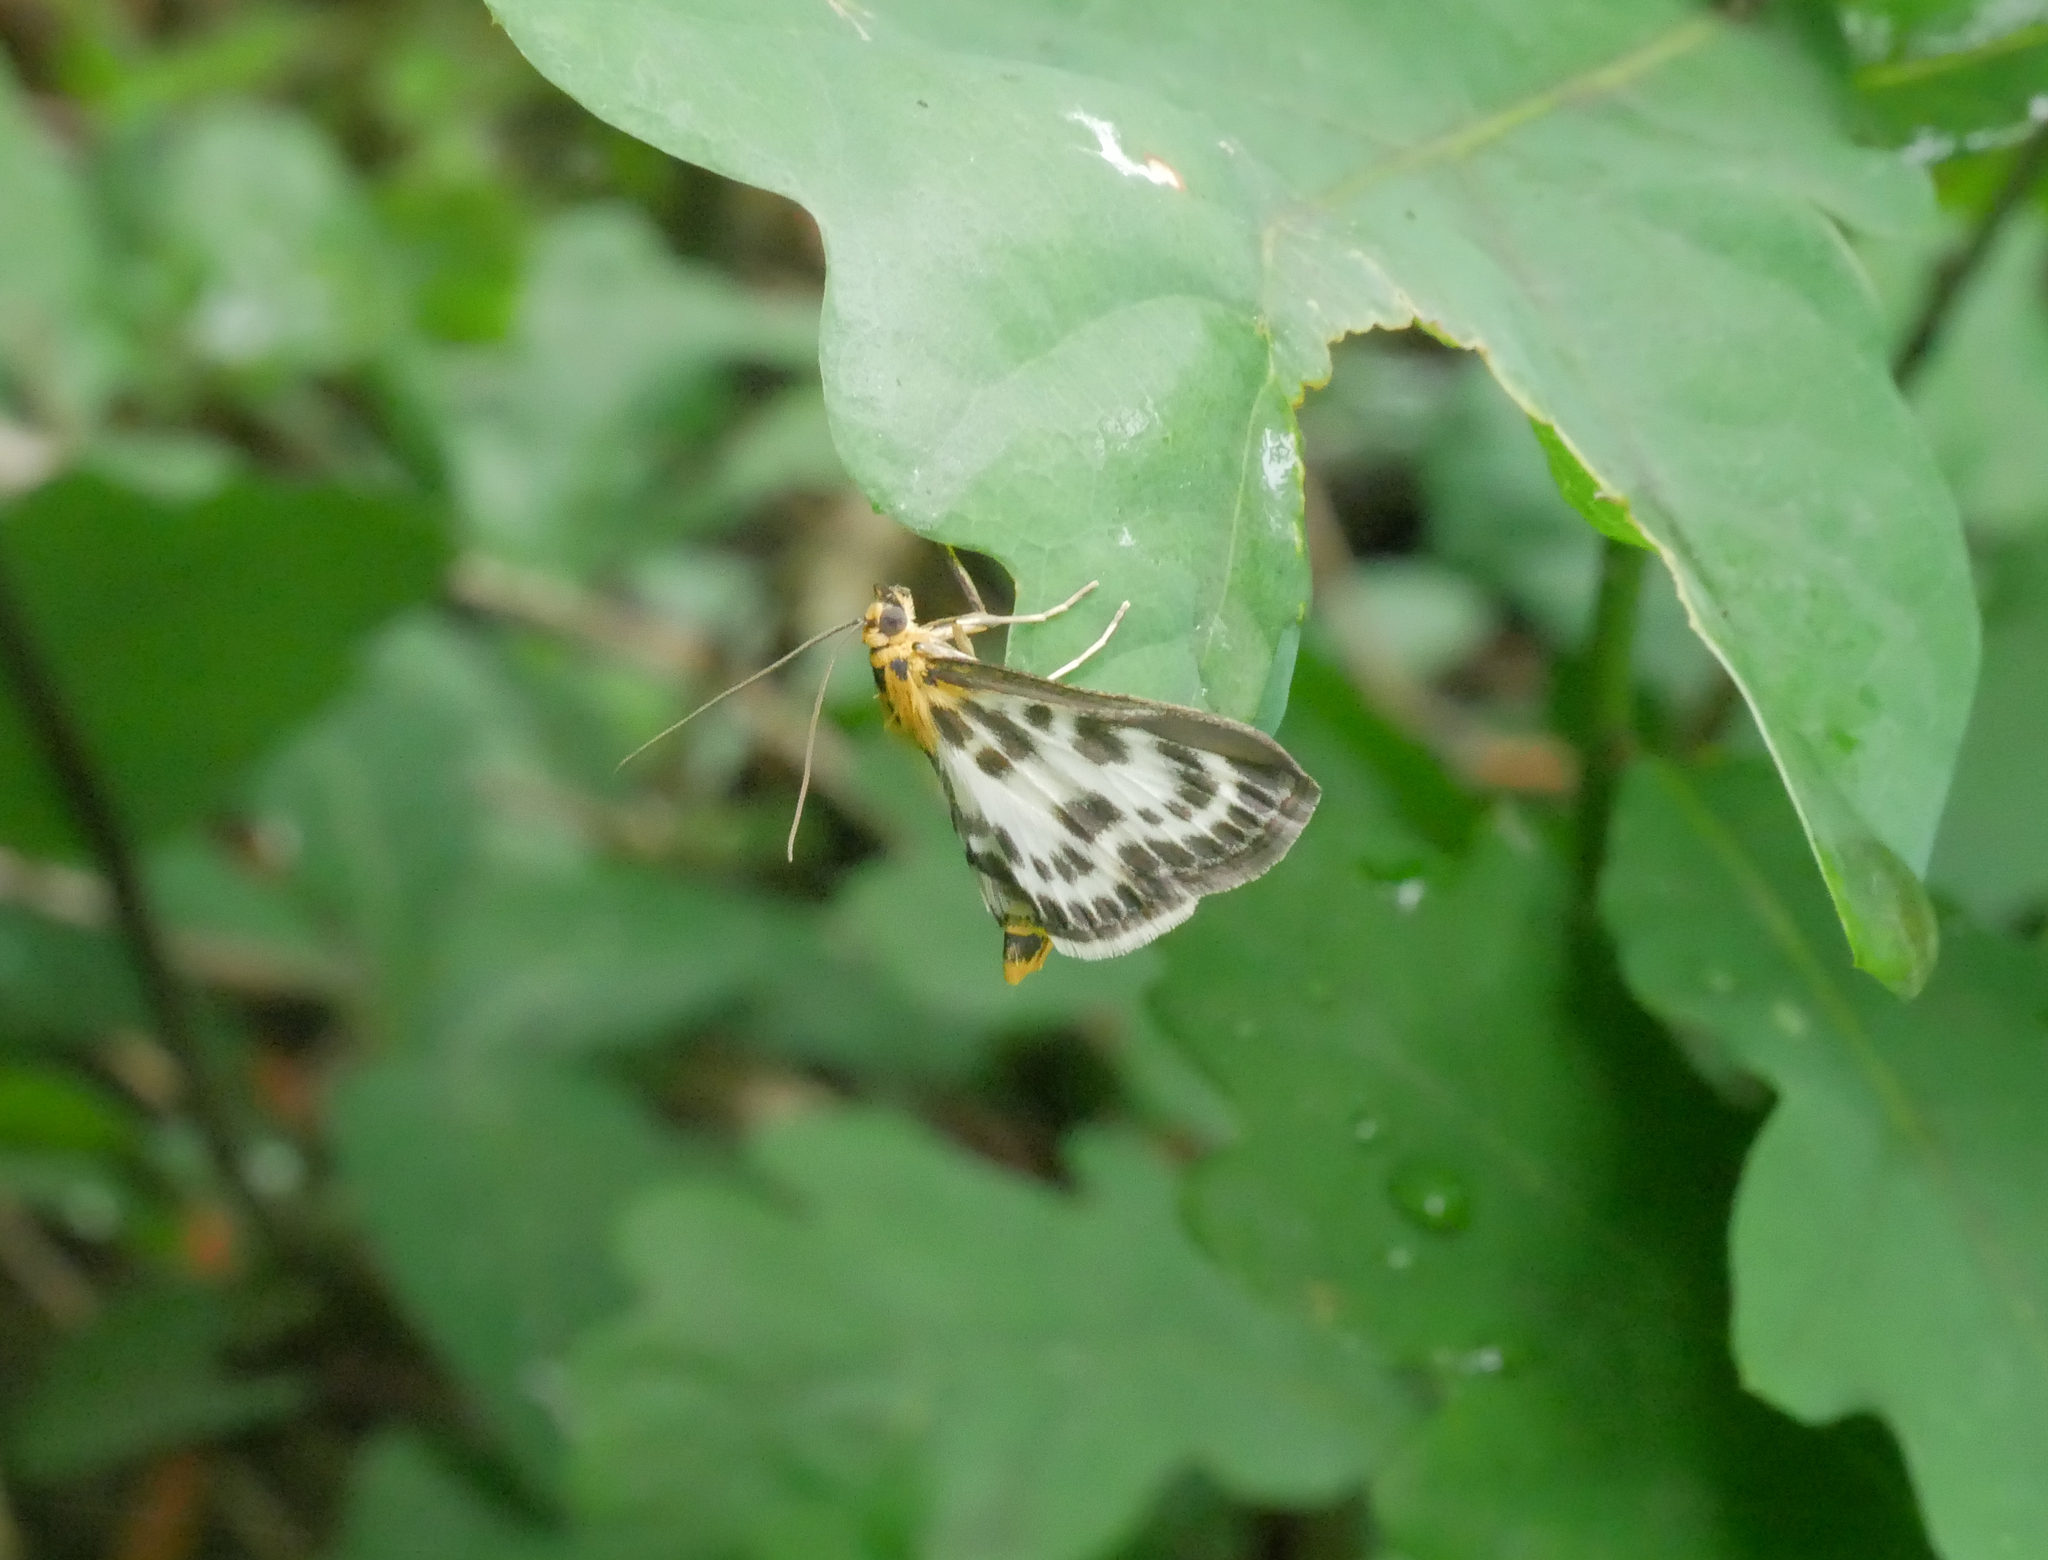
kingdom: Animalia
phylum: Arthropoda
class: Insecta
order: Lepidoptera
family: Crambidae
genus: Anania
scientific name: Anania hortulata
